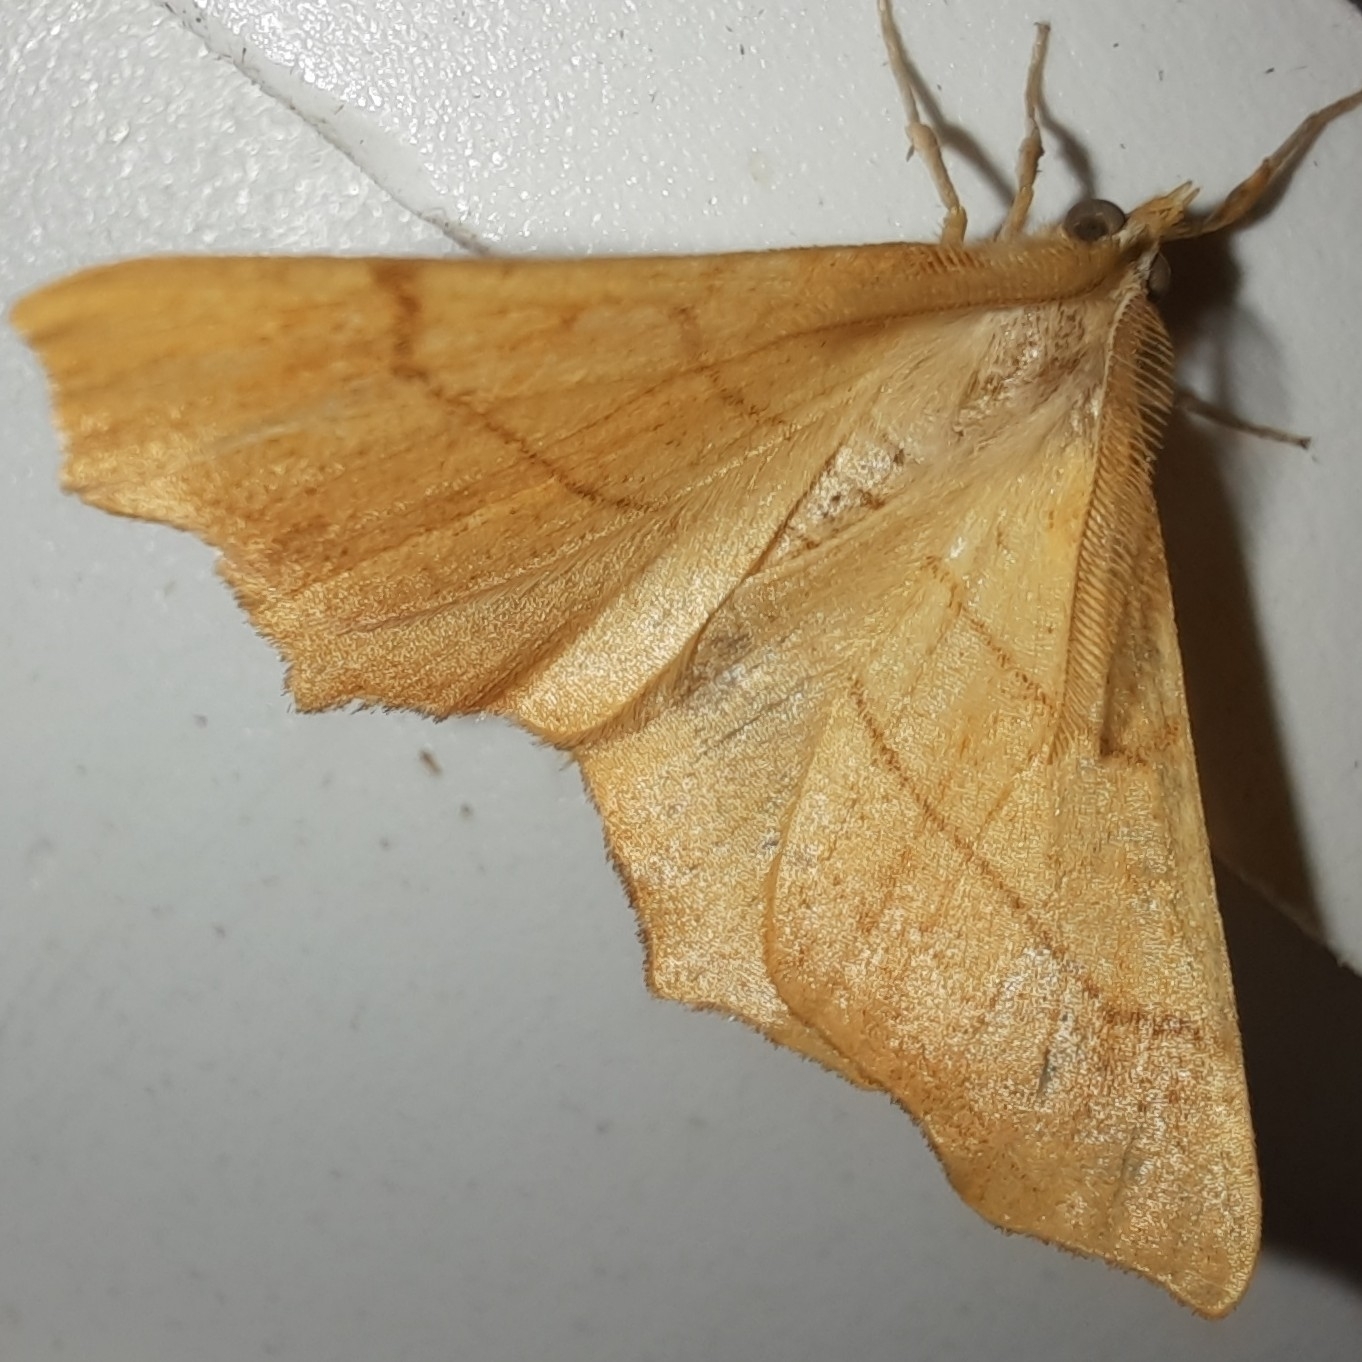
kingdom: Animalia
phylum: Arthropoda
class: Insecta
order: Lepidoptera
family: Geometridae
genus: Ennomos
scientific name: Ennomos quercinaria
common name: August thorn
